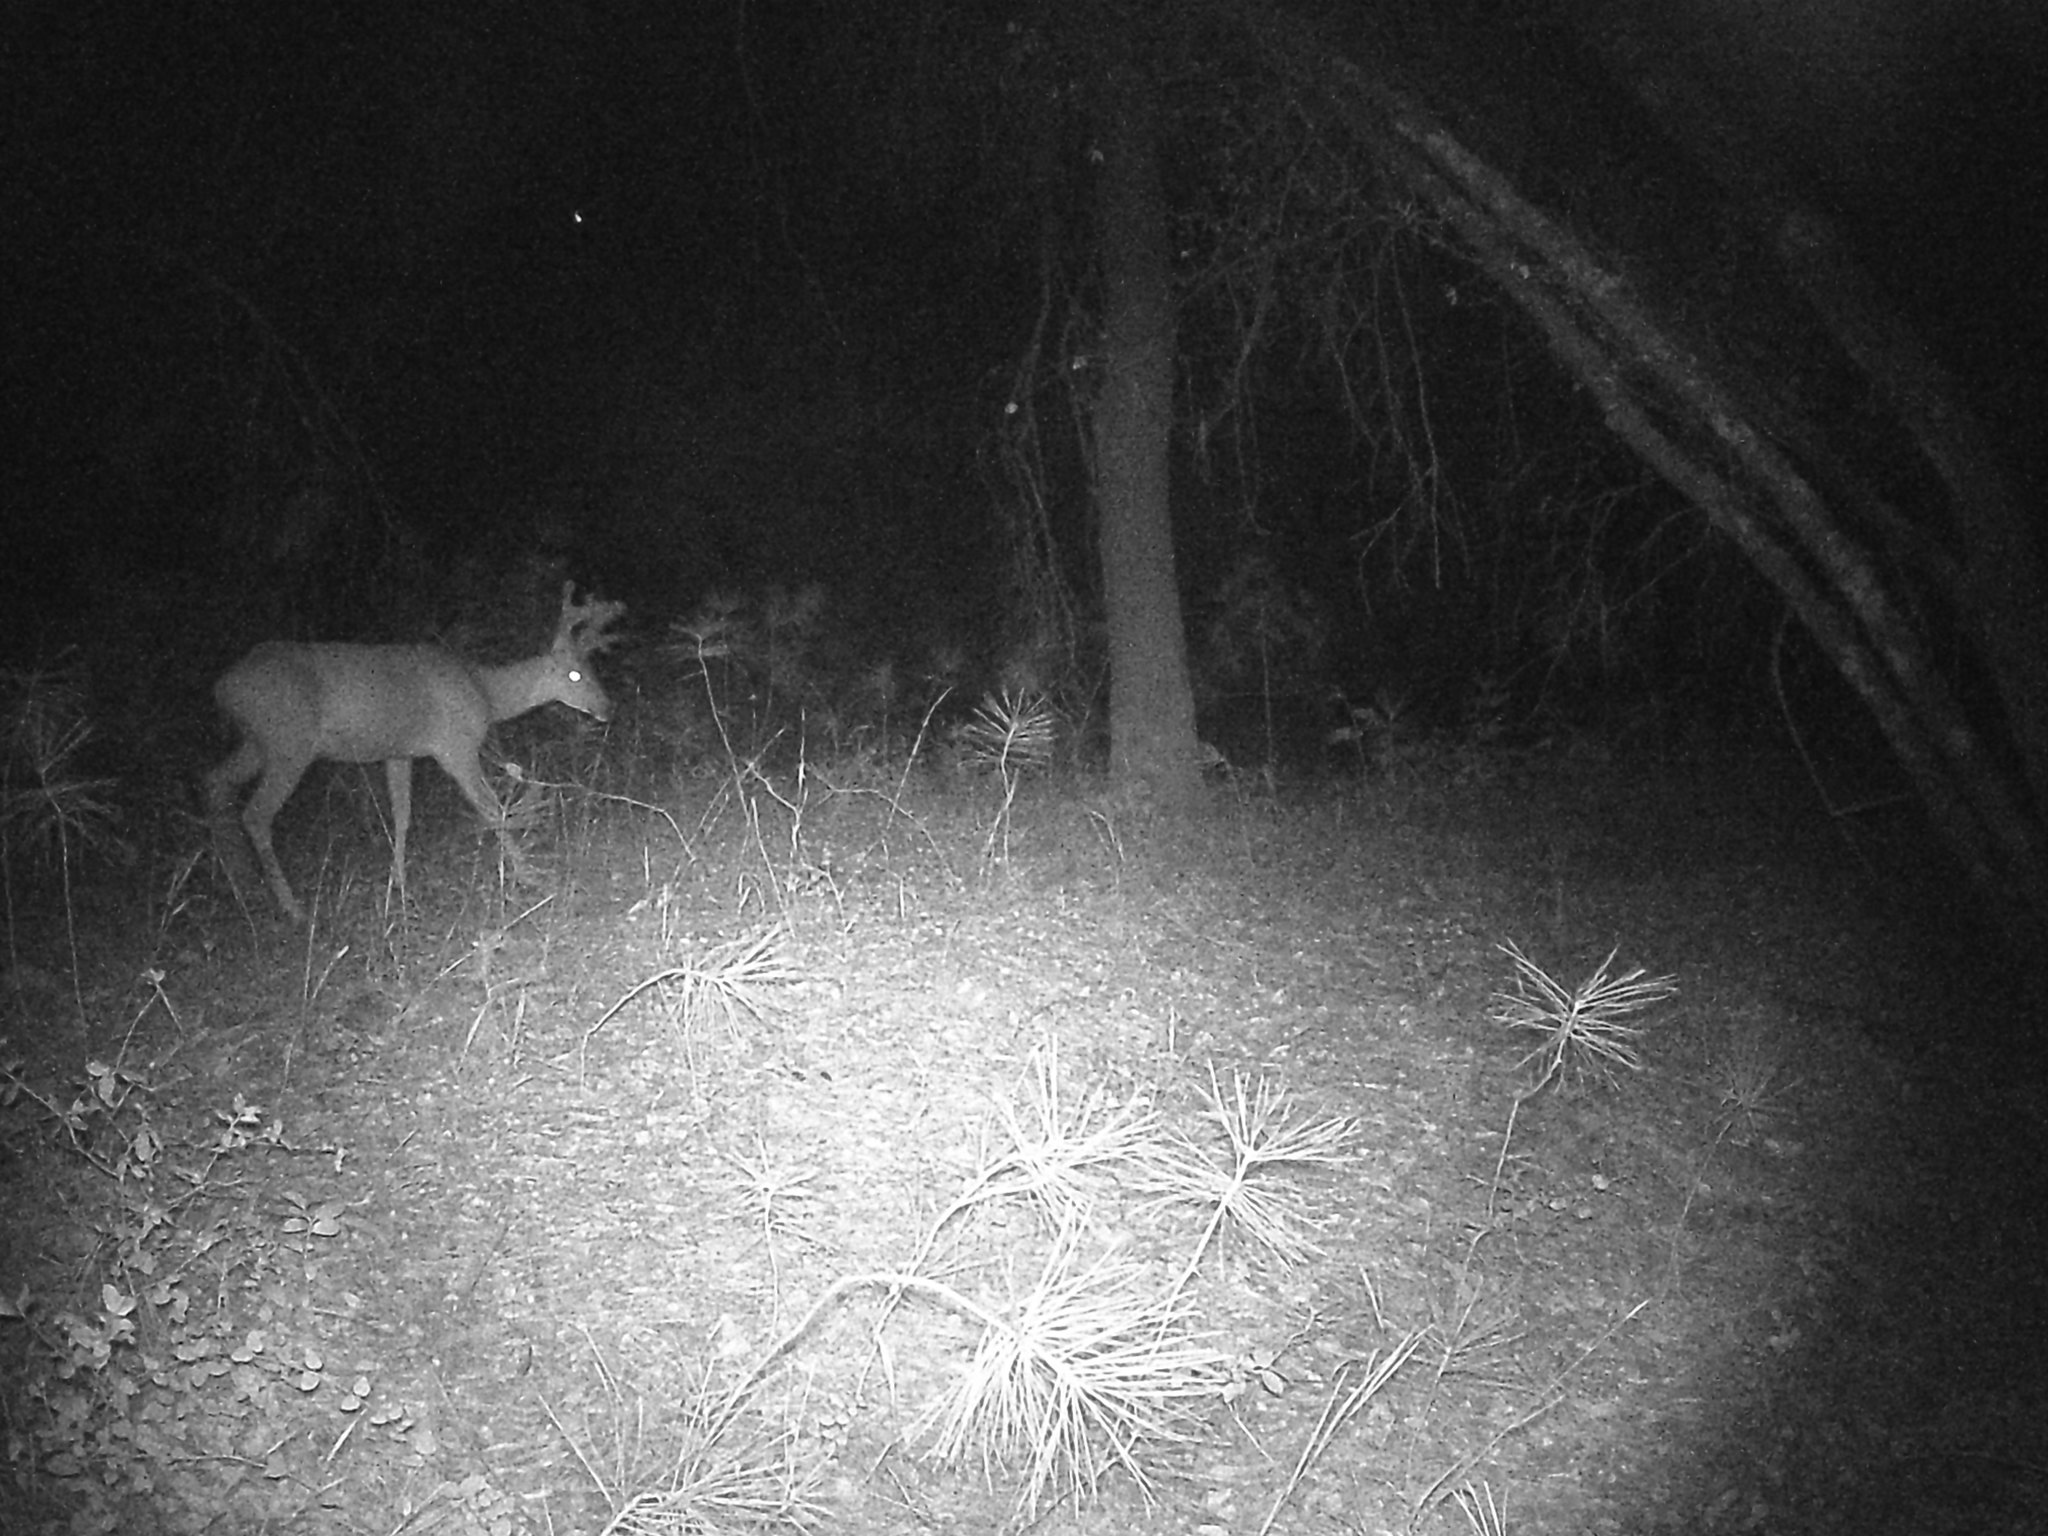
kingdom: Animalia
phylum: Chordata
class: Mammalia
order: Artiodactyla
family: Cervidae
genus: Odocoileus
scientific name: Odocoileus hemionus
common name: Mule deer
